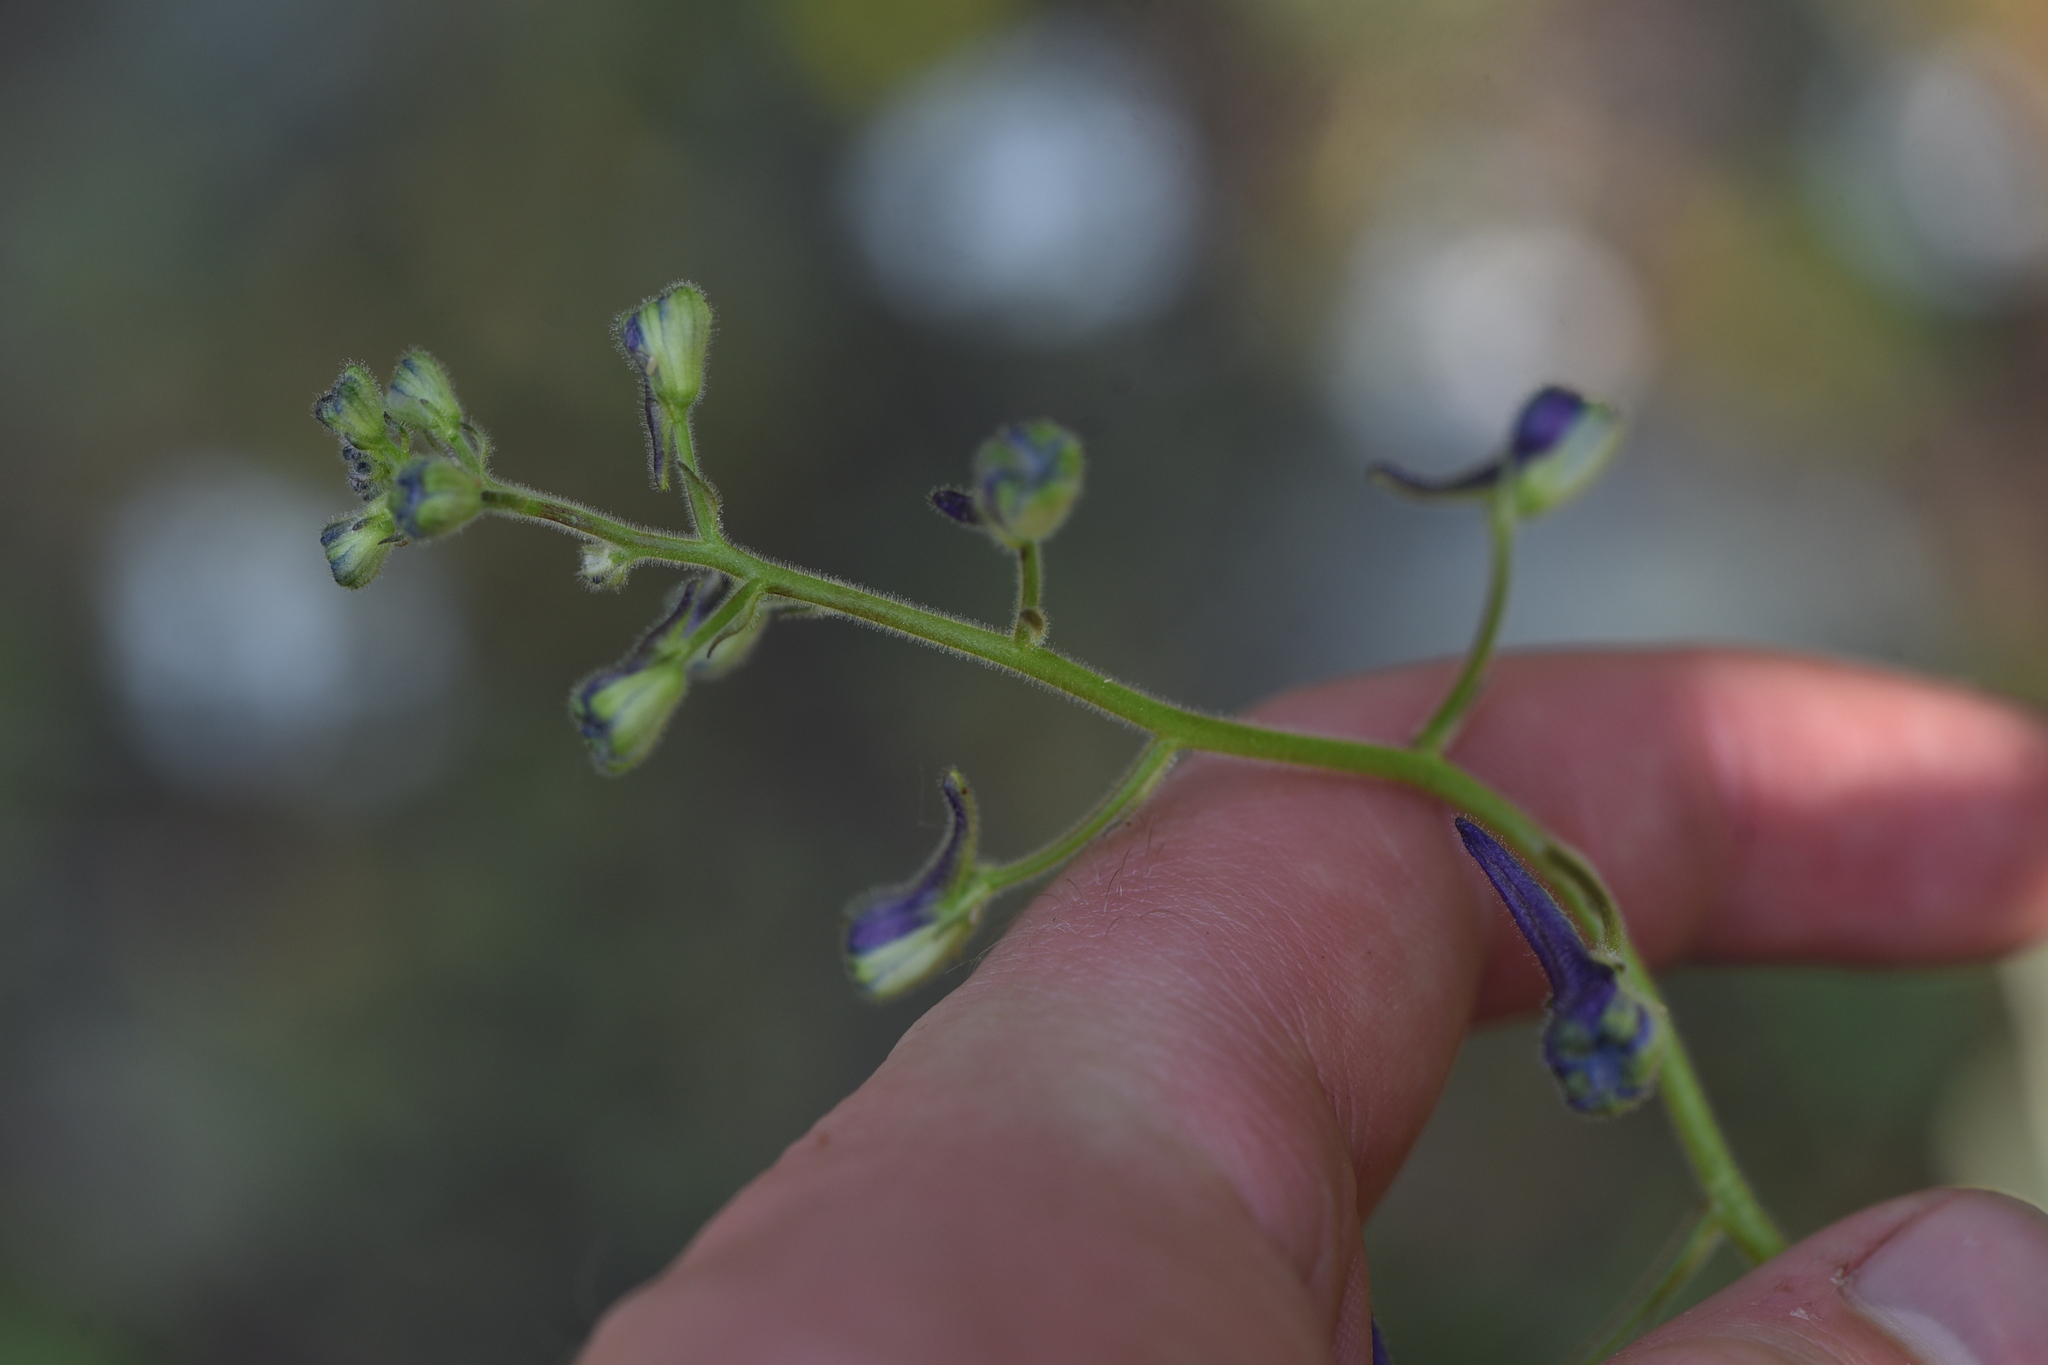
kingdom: Plantae
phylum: Tracheophyta
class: Magnoliopsida
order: Ranunculales
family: Ranunculaceae
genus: Delphinium
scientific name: Delphinium nuttallianum
